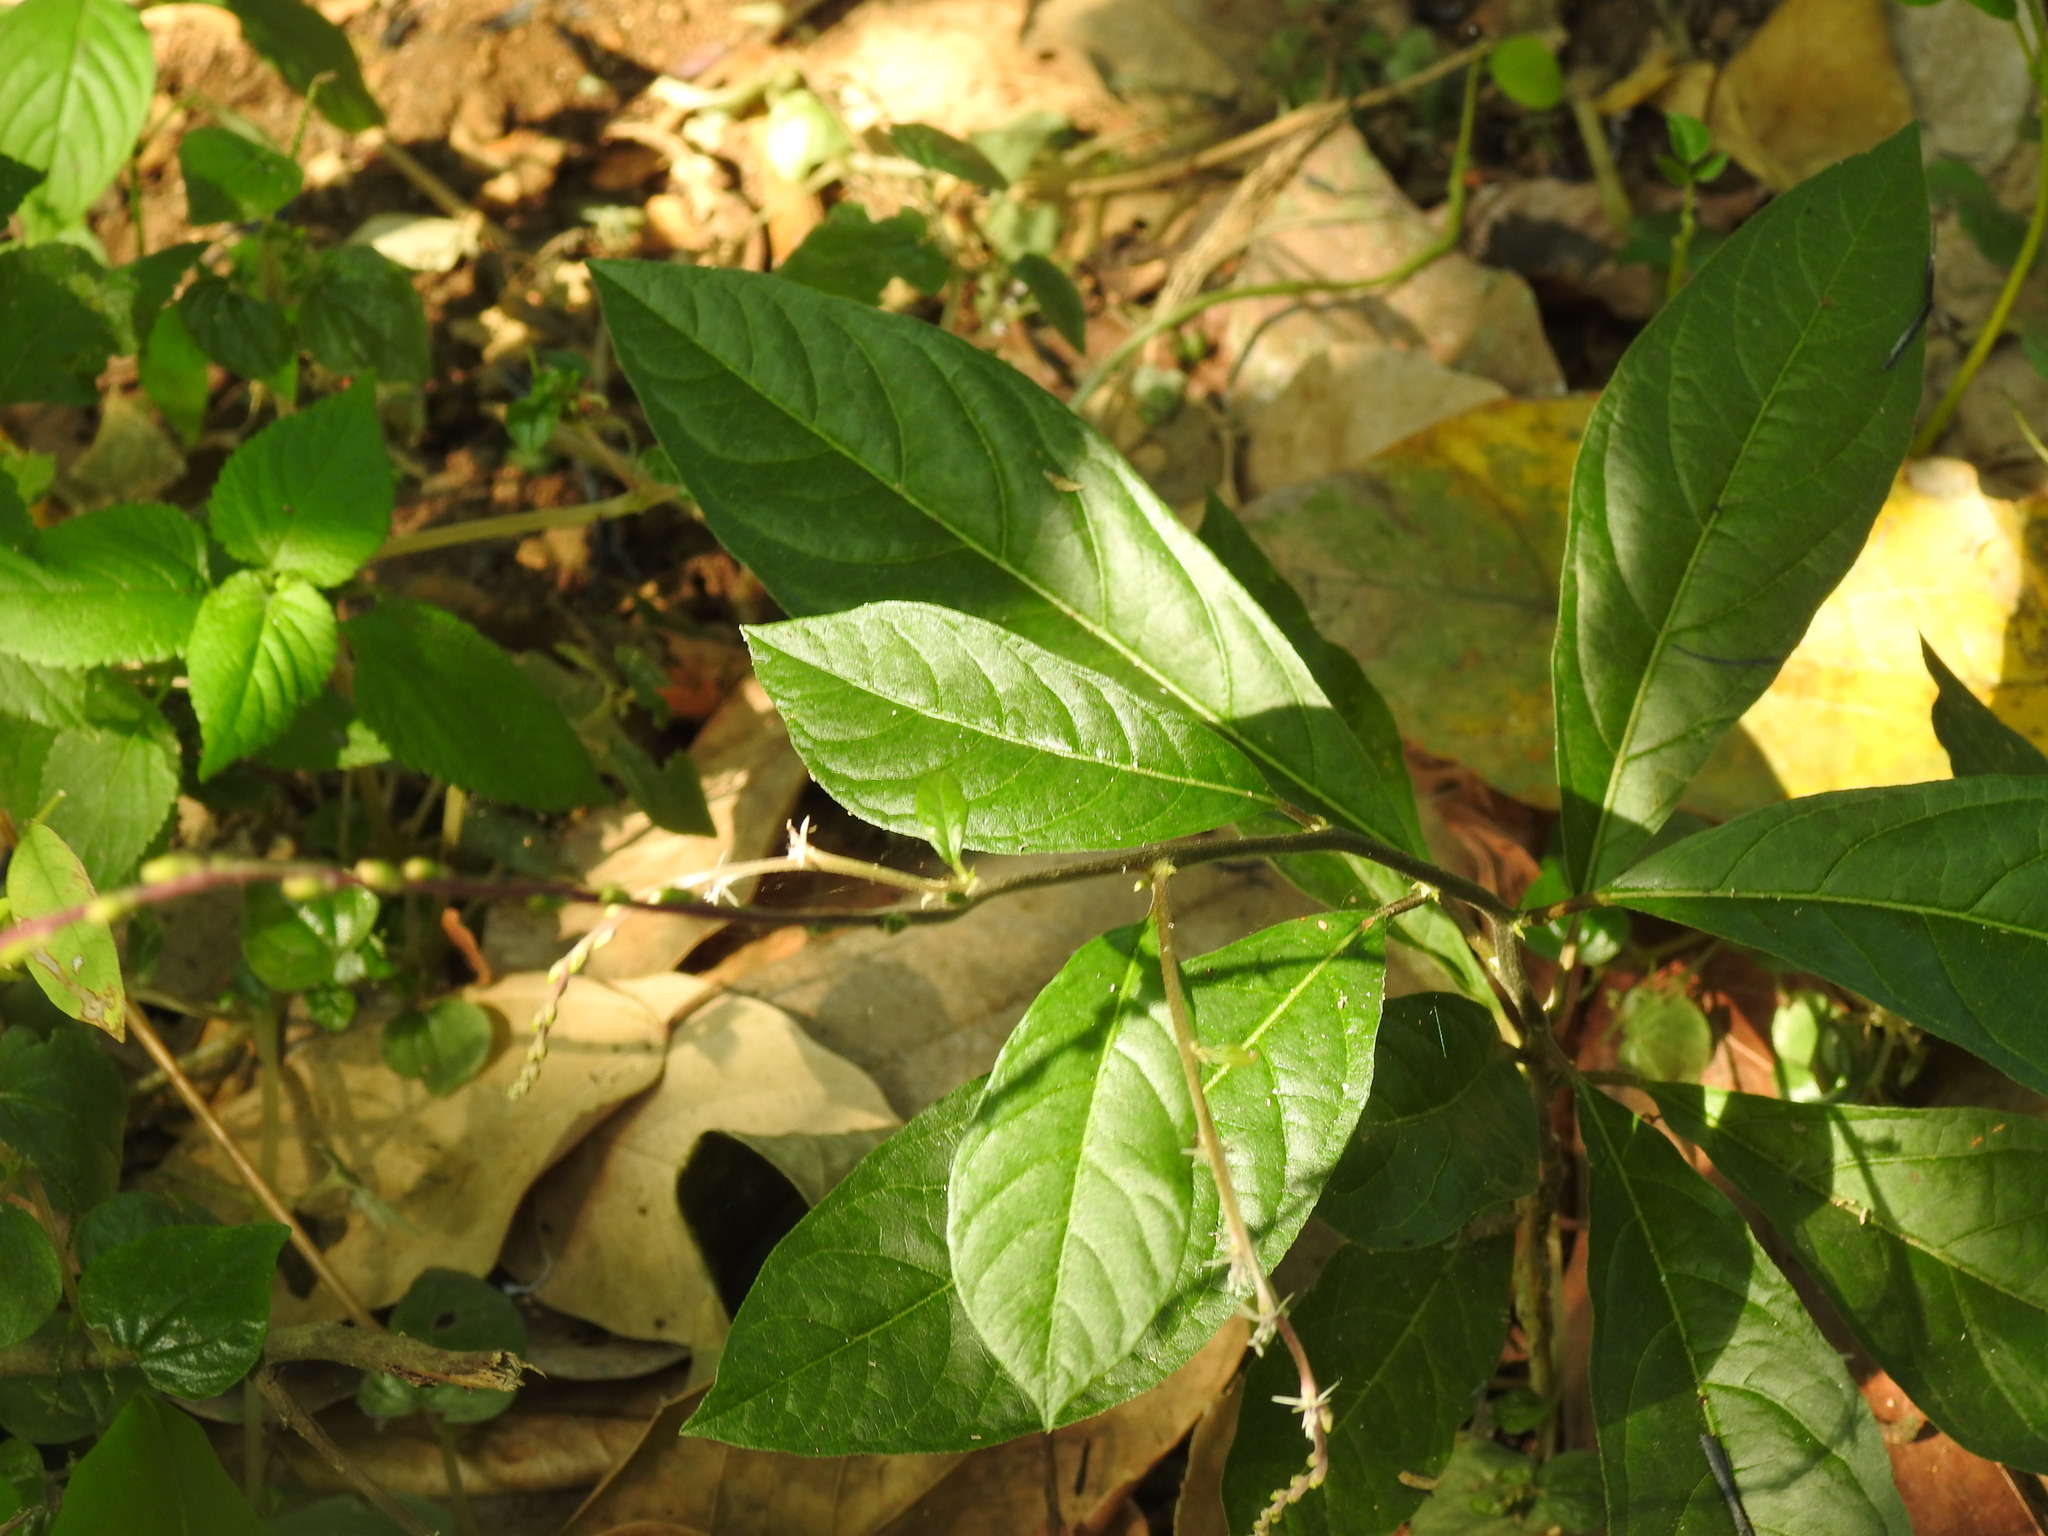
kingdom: Plantae
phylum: Tracheophyta
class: Magnoliopsida
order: Caryophyllales
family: Phytolaccaceae
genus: Petiveria
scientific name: Petiveria alliacea
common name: Garlicweed
